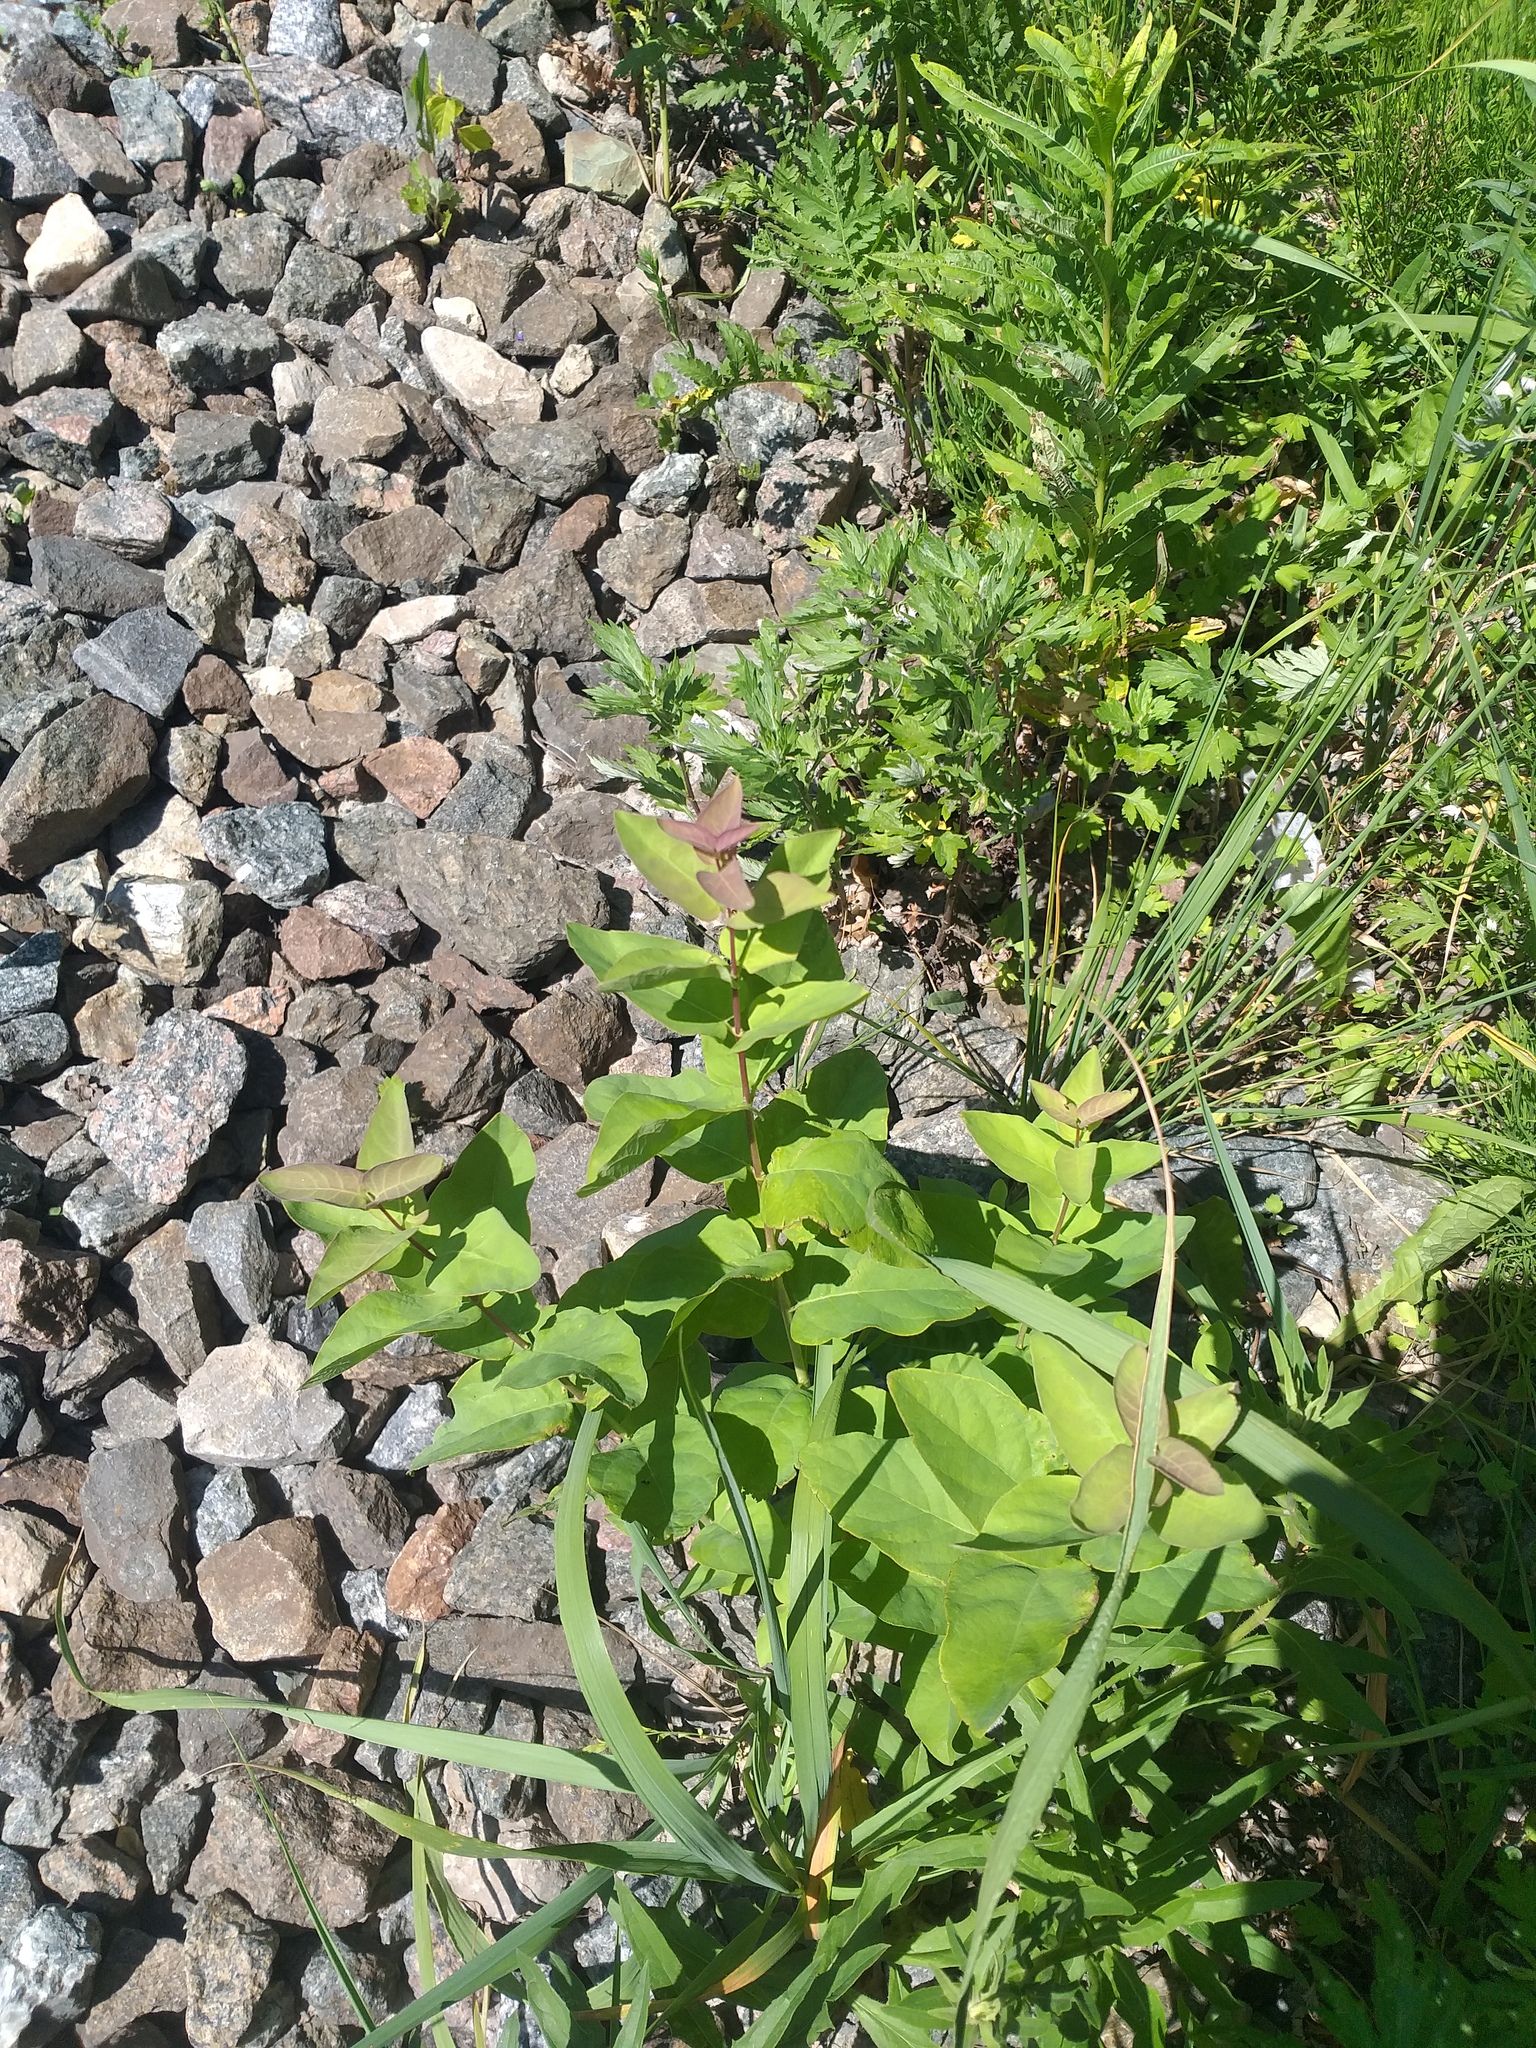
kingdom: Plantae
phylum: Tracheophyta
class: Magnoliopsida
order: Dipsacales
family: Caprifoliaceae
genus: Lonicera
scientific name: Lonicera tatarica
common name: Tatarian honeysuckle
